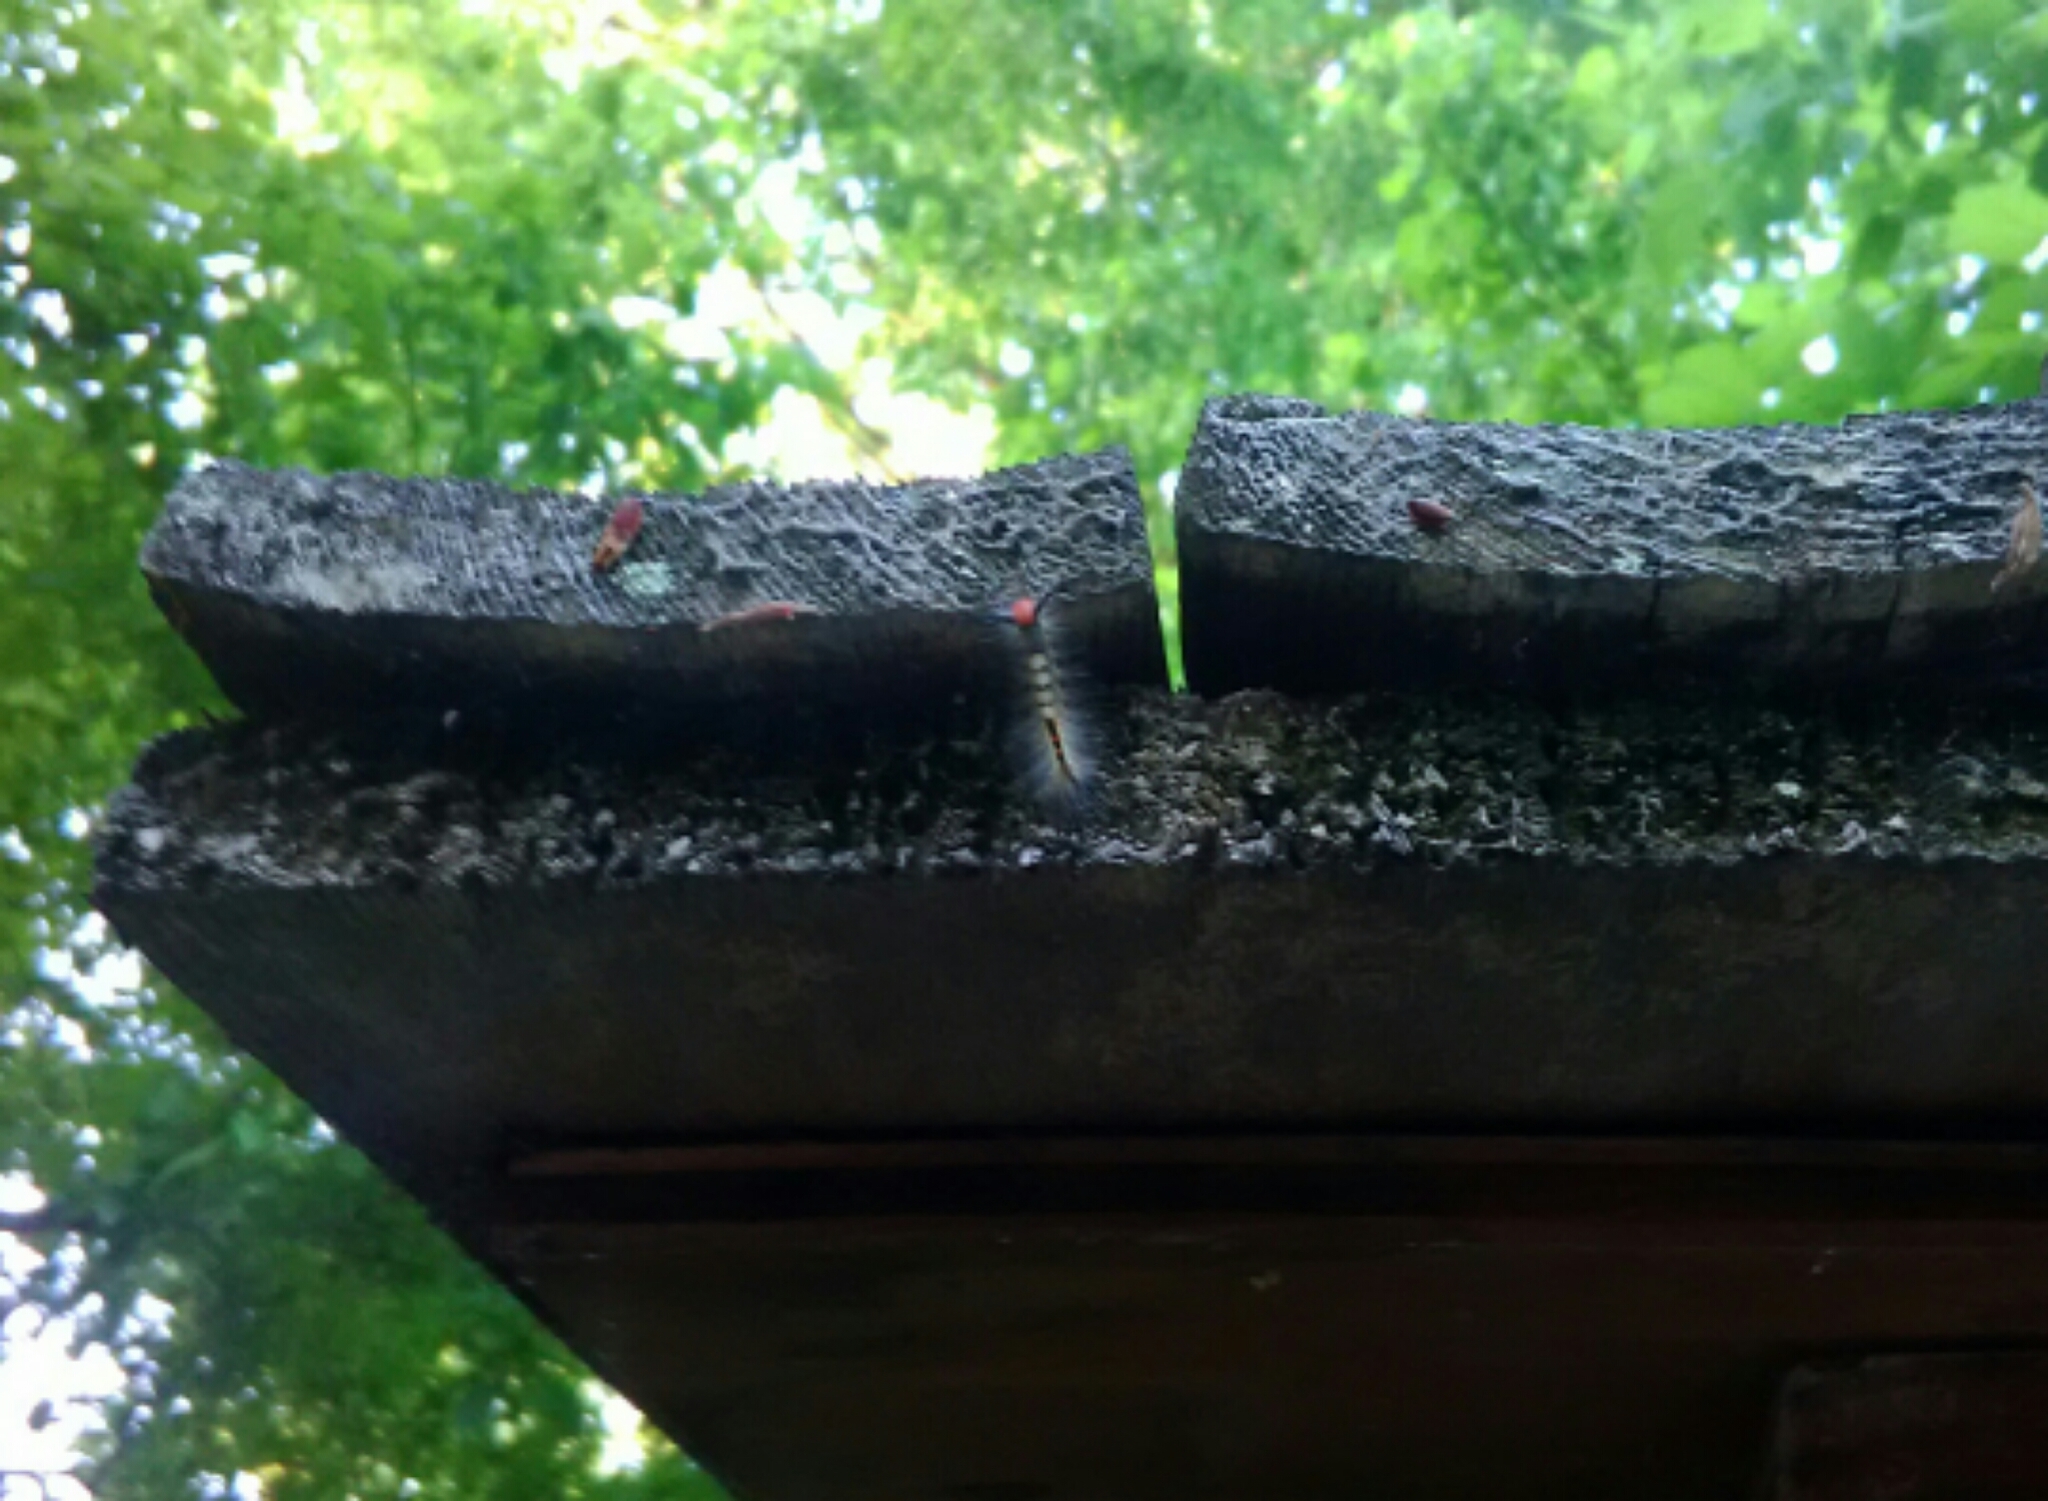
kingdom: Animalia
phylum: Arthropoda
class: Insecta
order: Lepidoptera
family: Erebidae
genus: Orgyia
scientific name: Orgyia leucostigma
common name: White-marked tussock moth
